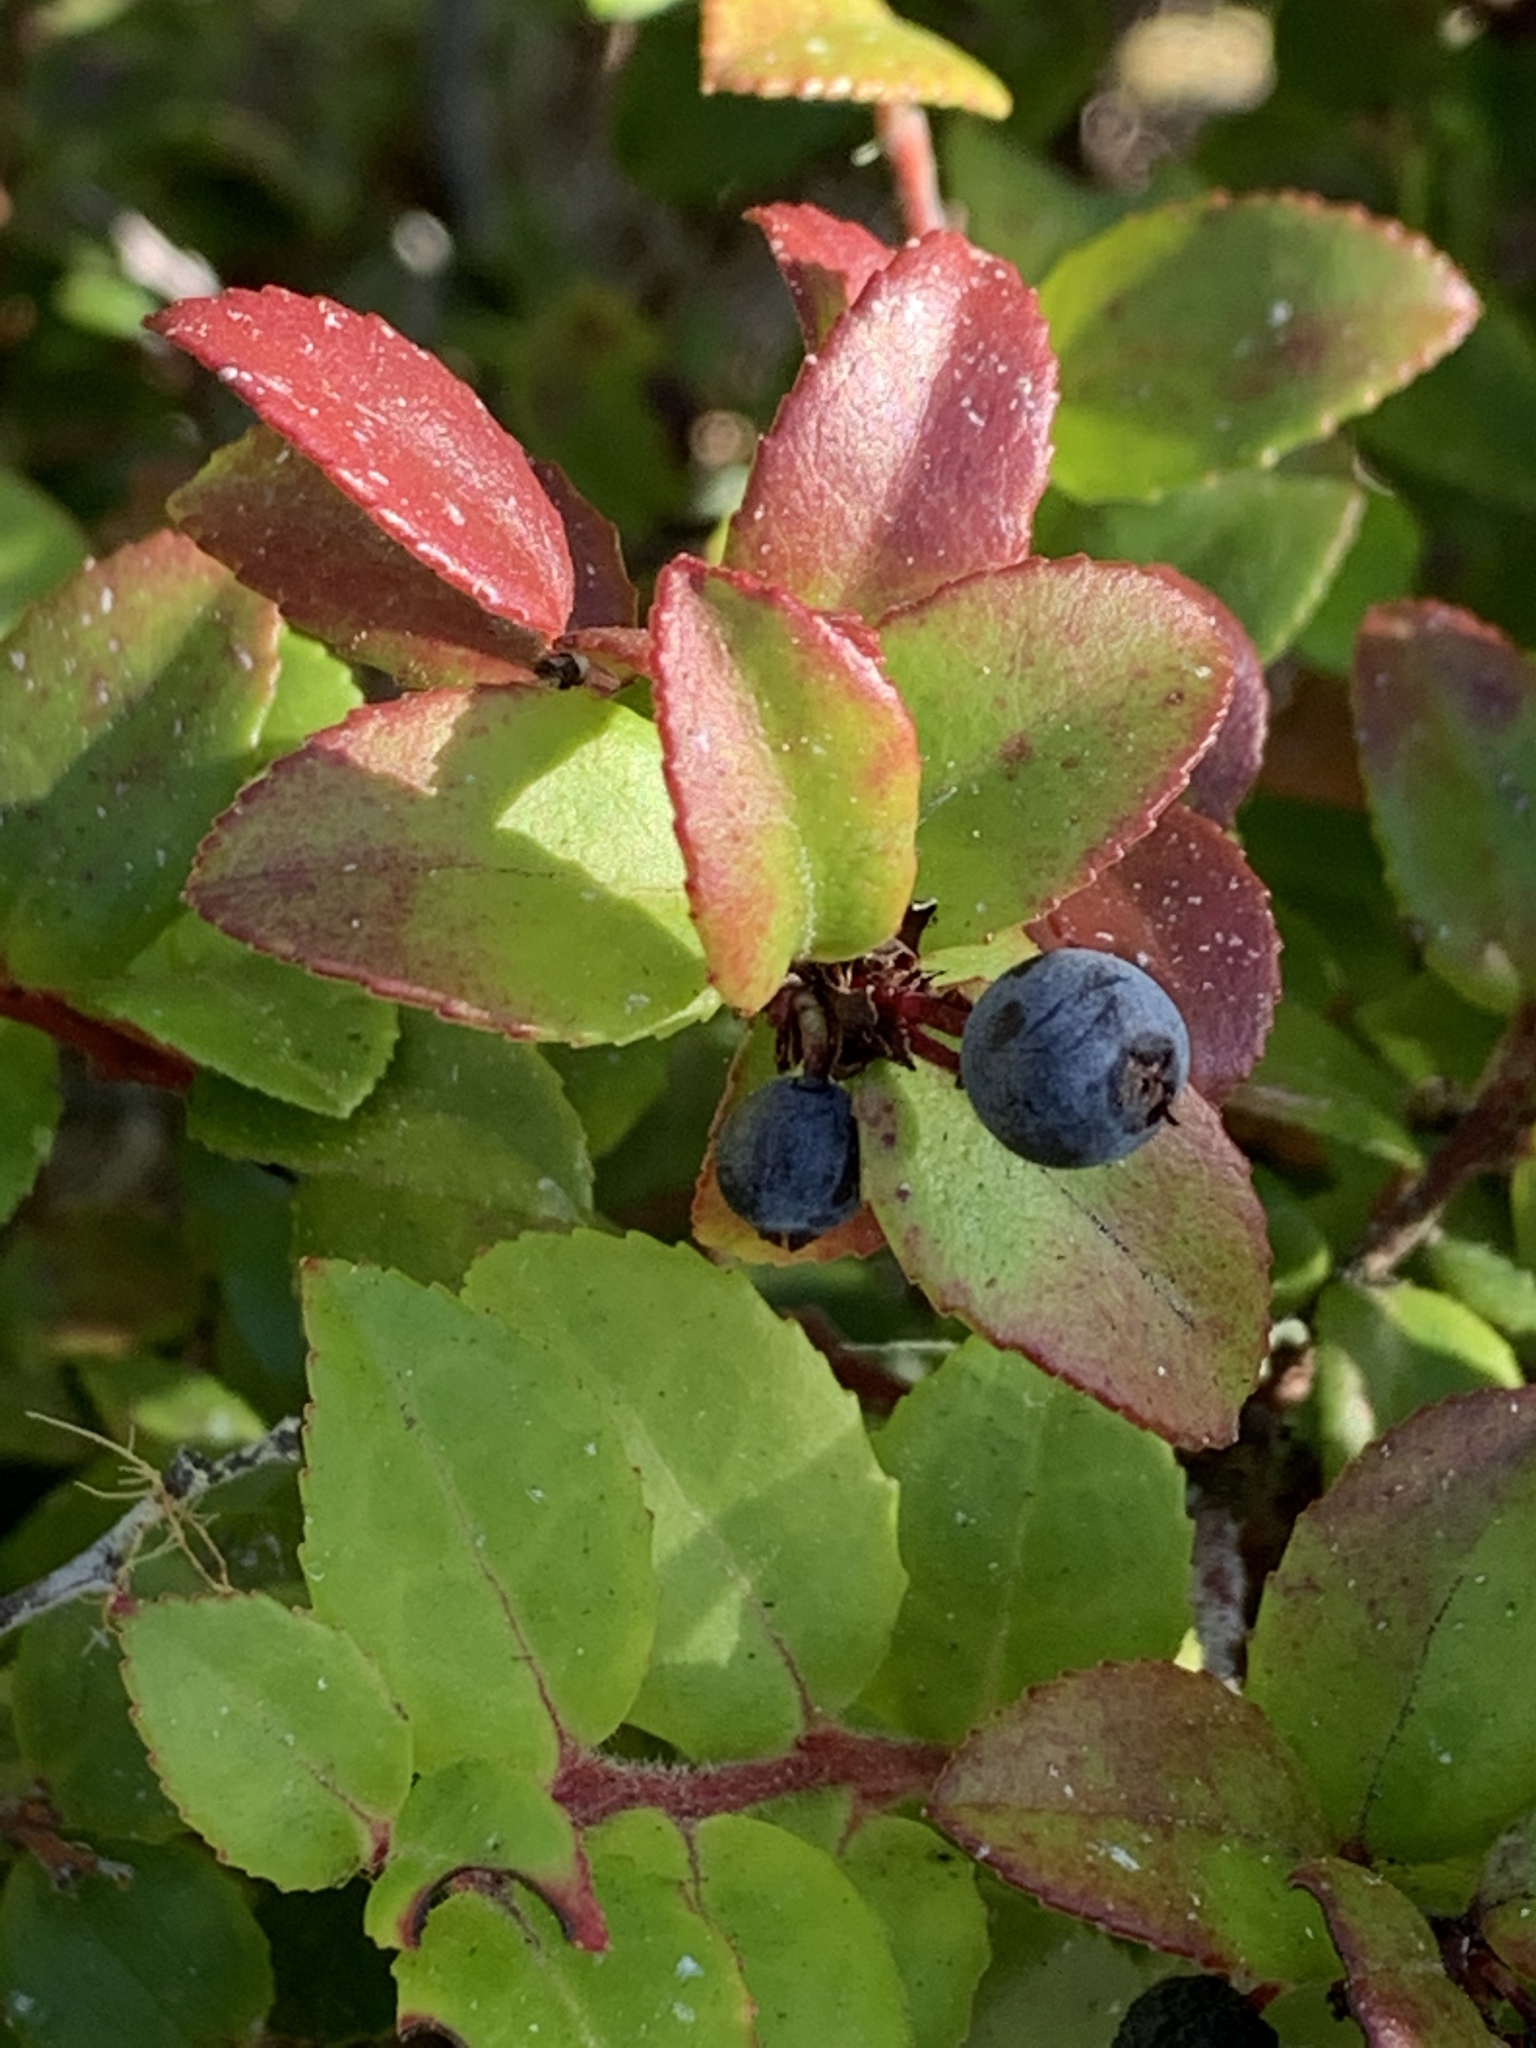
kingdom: Plantae
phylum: Tracheophyta
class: Magnoliopsida
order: Ericales
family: Ericaceae
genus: Vaccinium
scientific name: Vaccinium ovatum
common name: California-huckleberry
